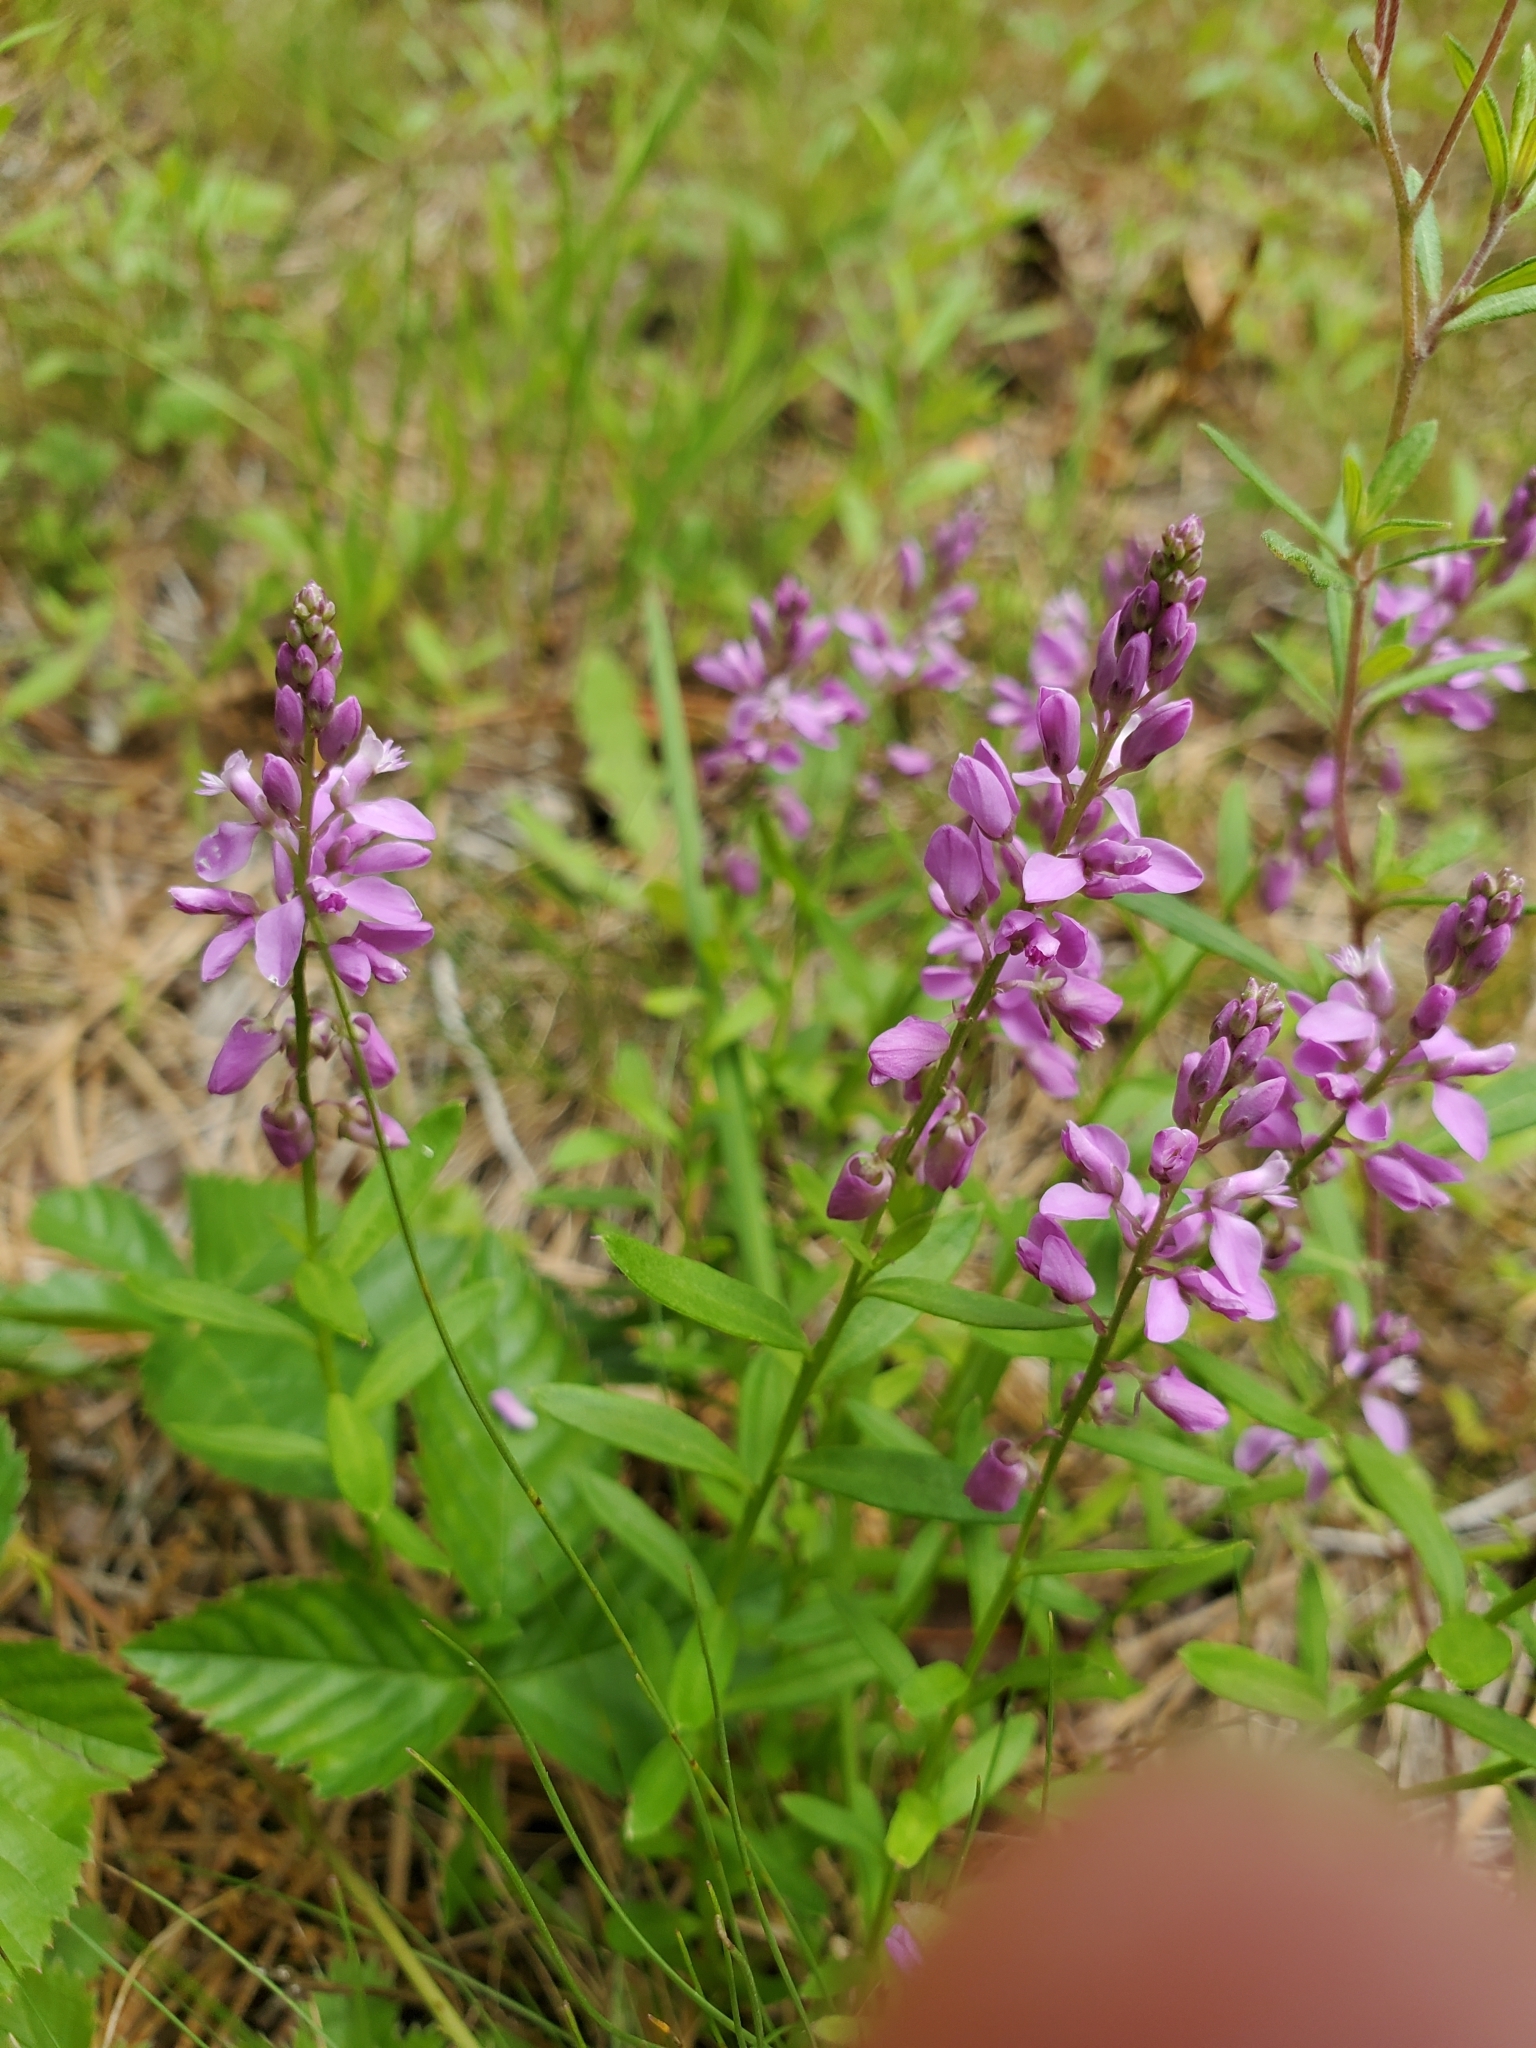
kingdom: Plantae
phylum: Tracheophyta
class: Magnoliopsida
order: Fabales
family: Polygalaceae
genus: Polygala
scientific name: Polygala polygama
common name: Bitter milkwort
